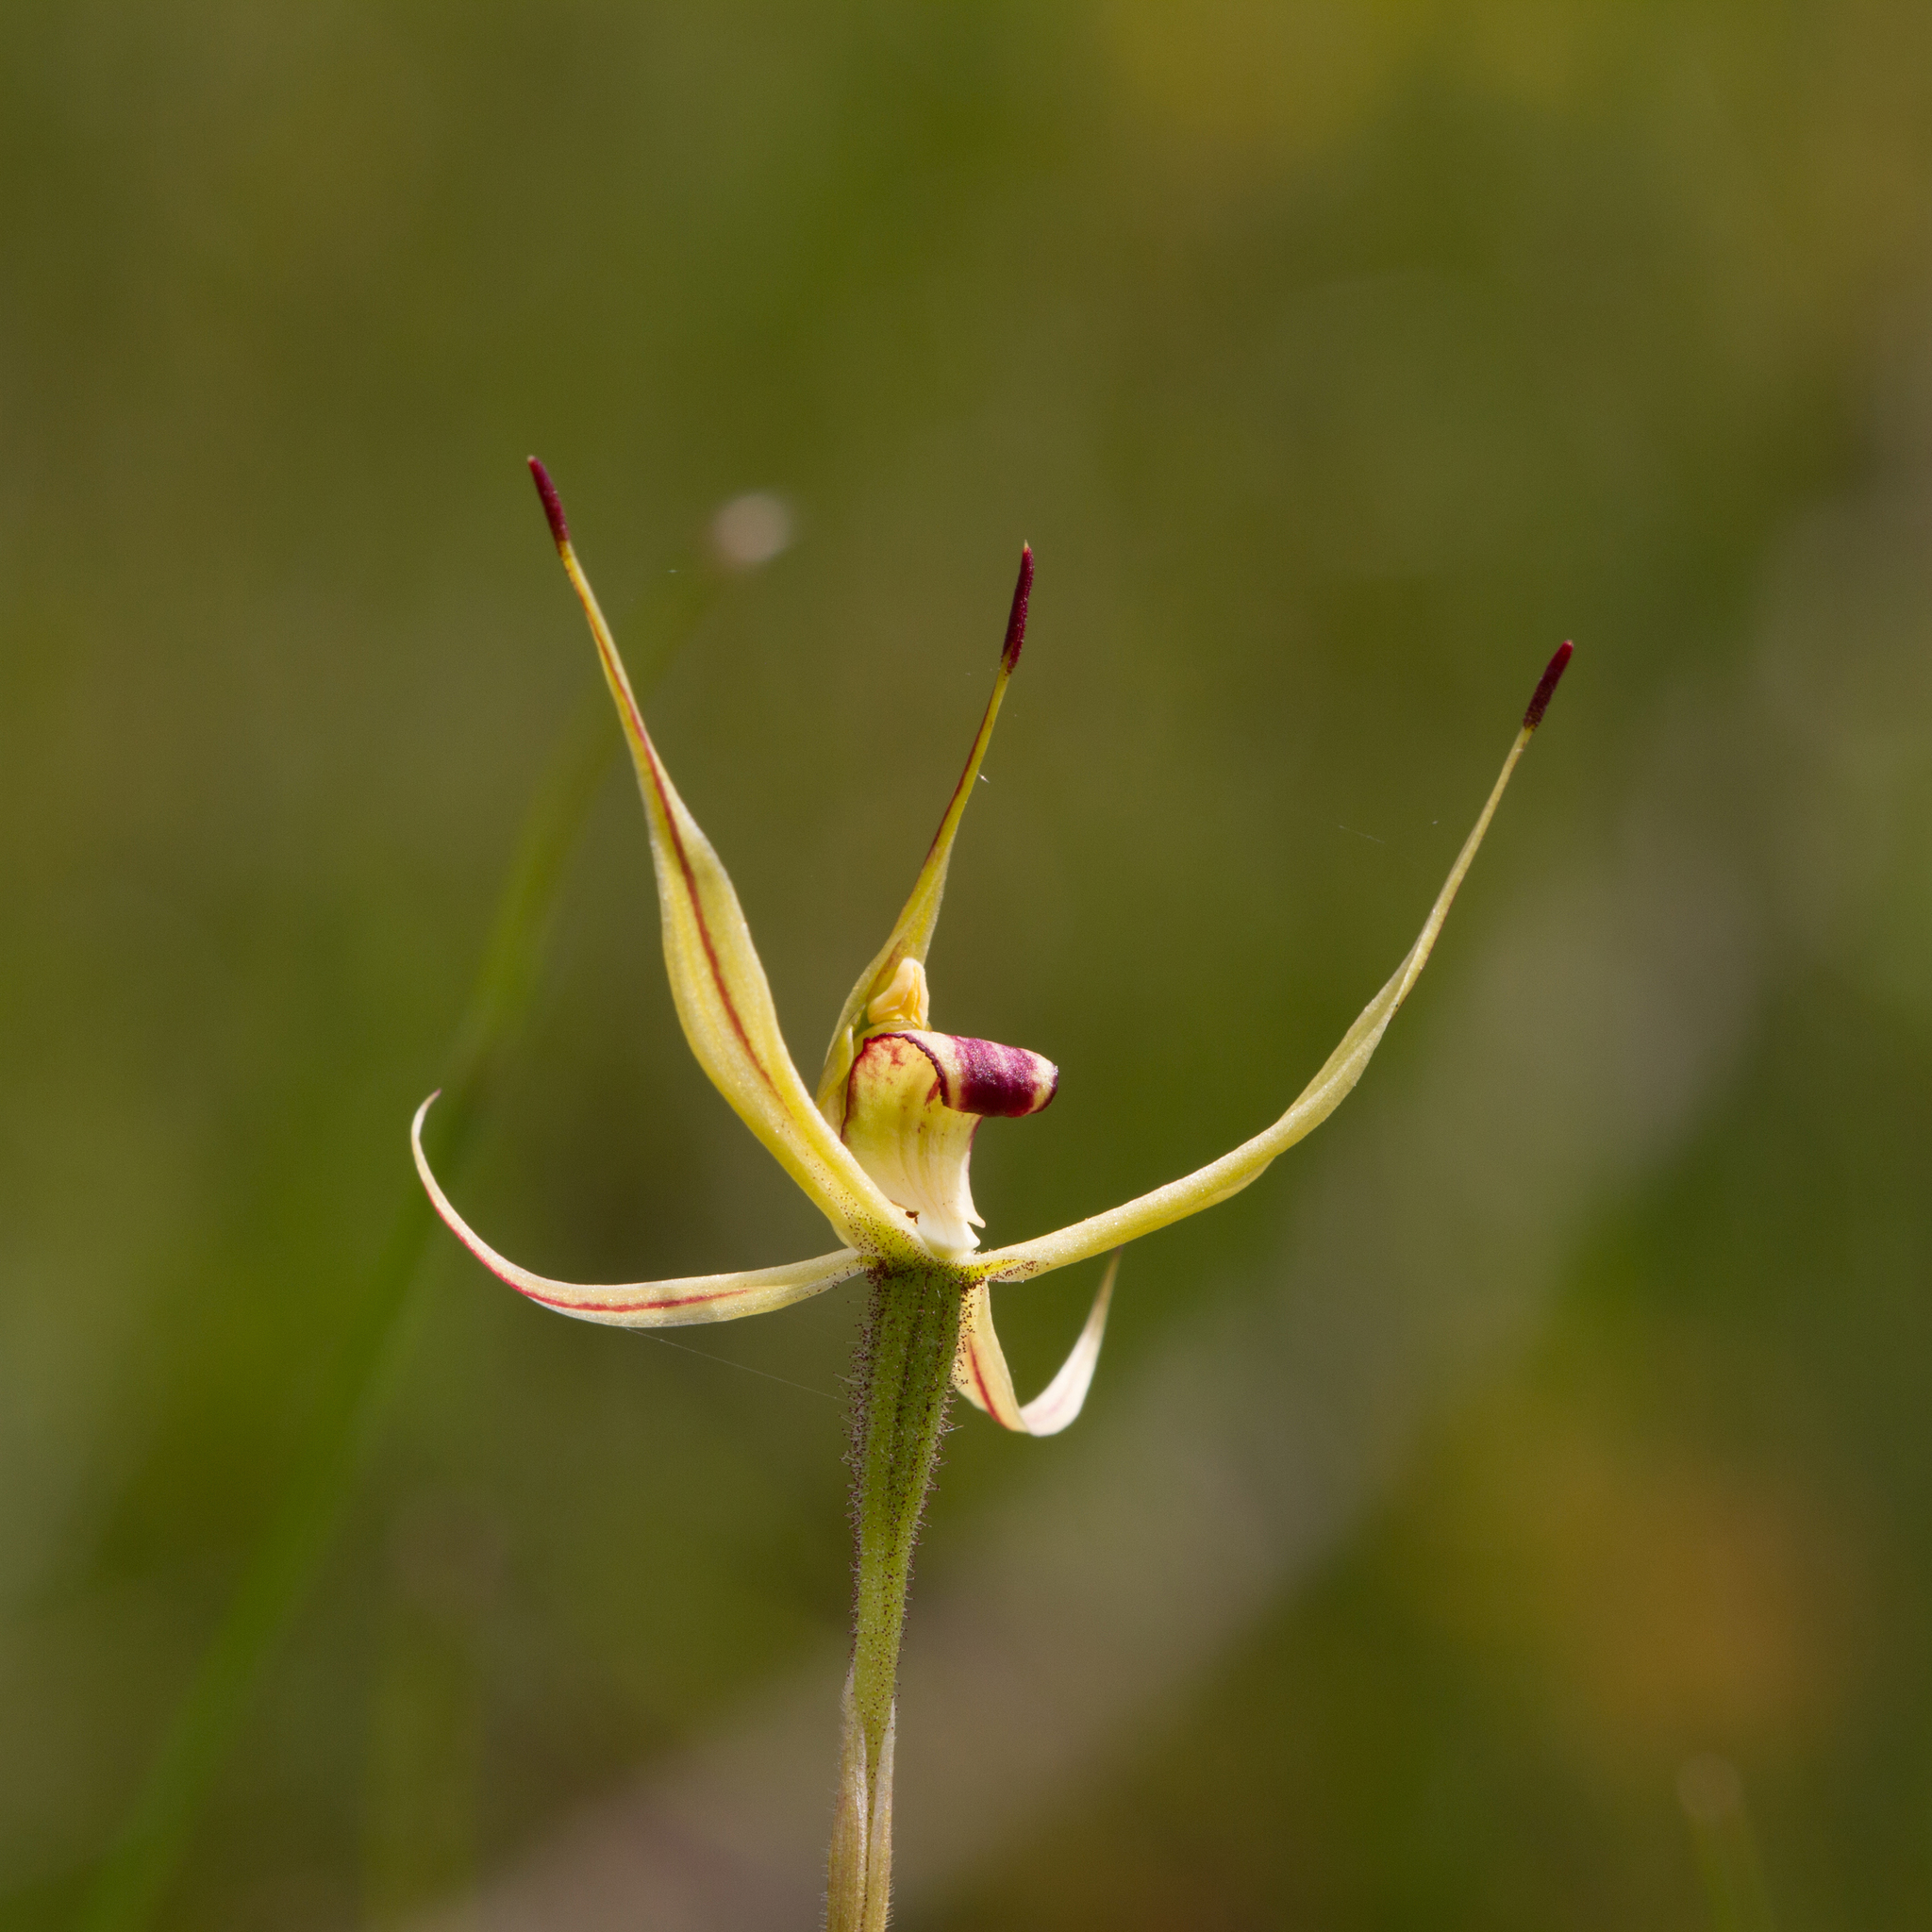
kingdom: Plantae
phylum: Tracheophyta
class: Liliopsida
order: Asparagales
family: Orchidaceae
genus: Caladenia
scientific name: Caladenia leptochila
